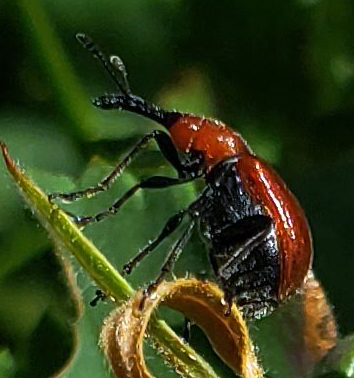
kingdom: Animalia
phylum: Arthropoda
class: Insecta
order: Coleoptera
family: Attelabidae
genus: Merhynchites
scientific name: Merhynchites bicolor
